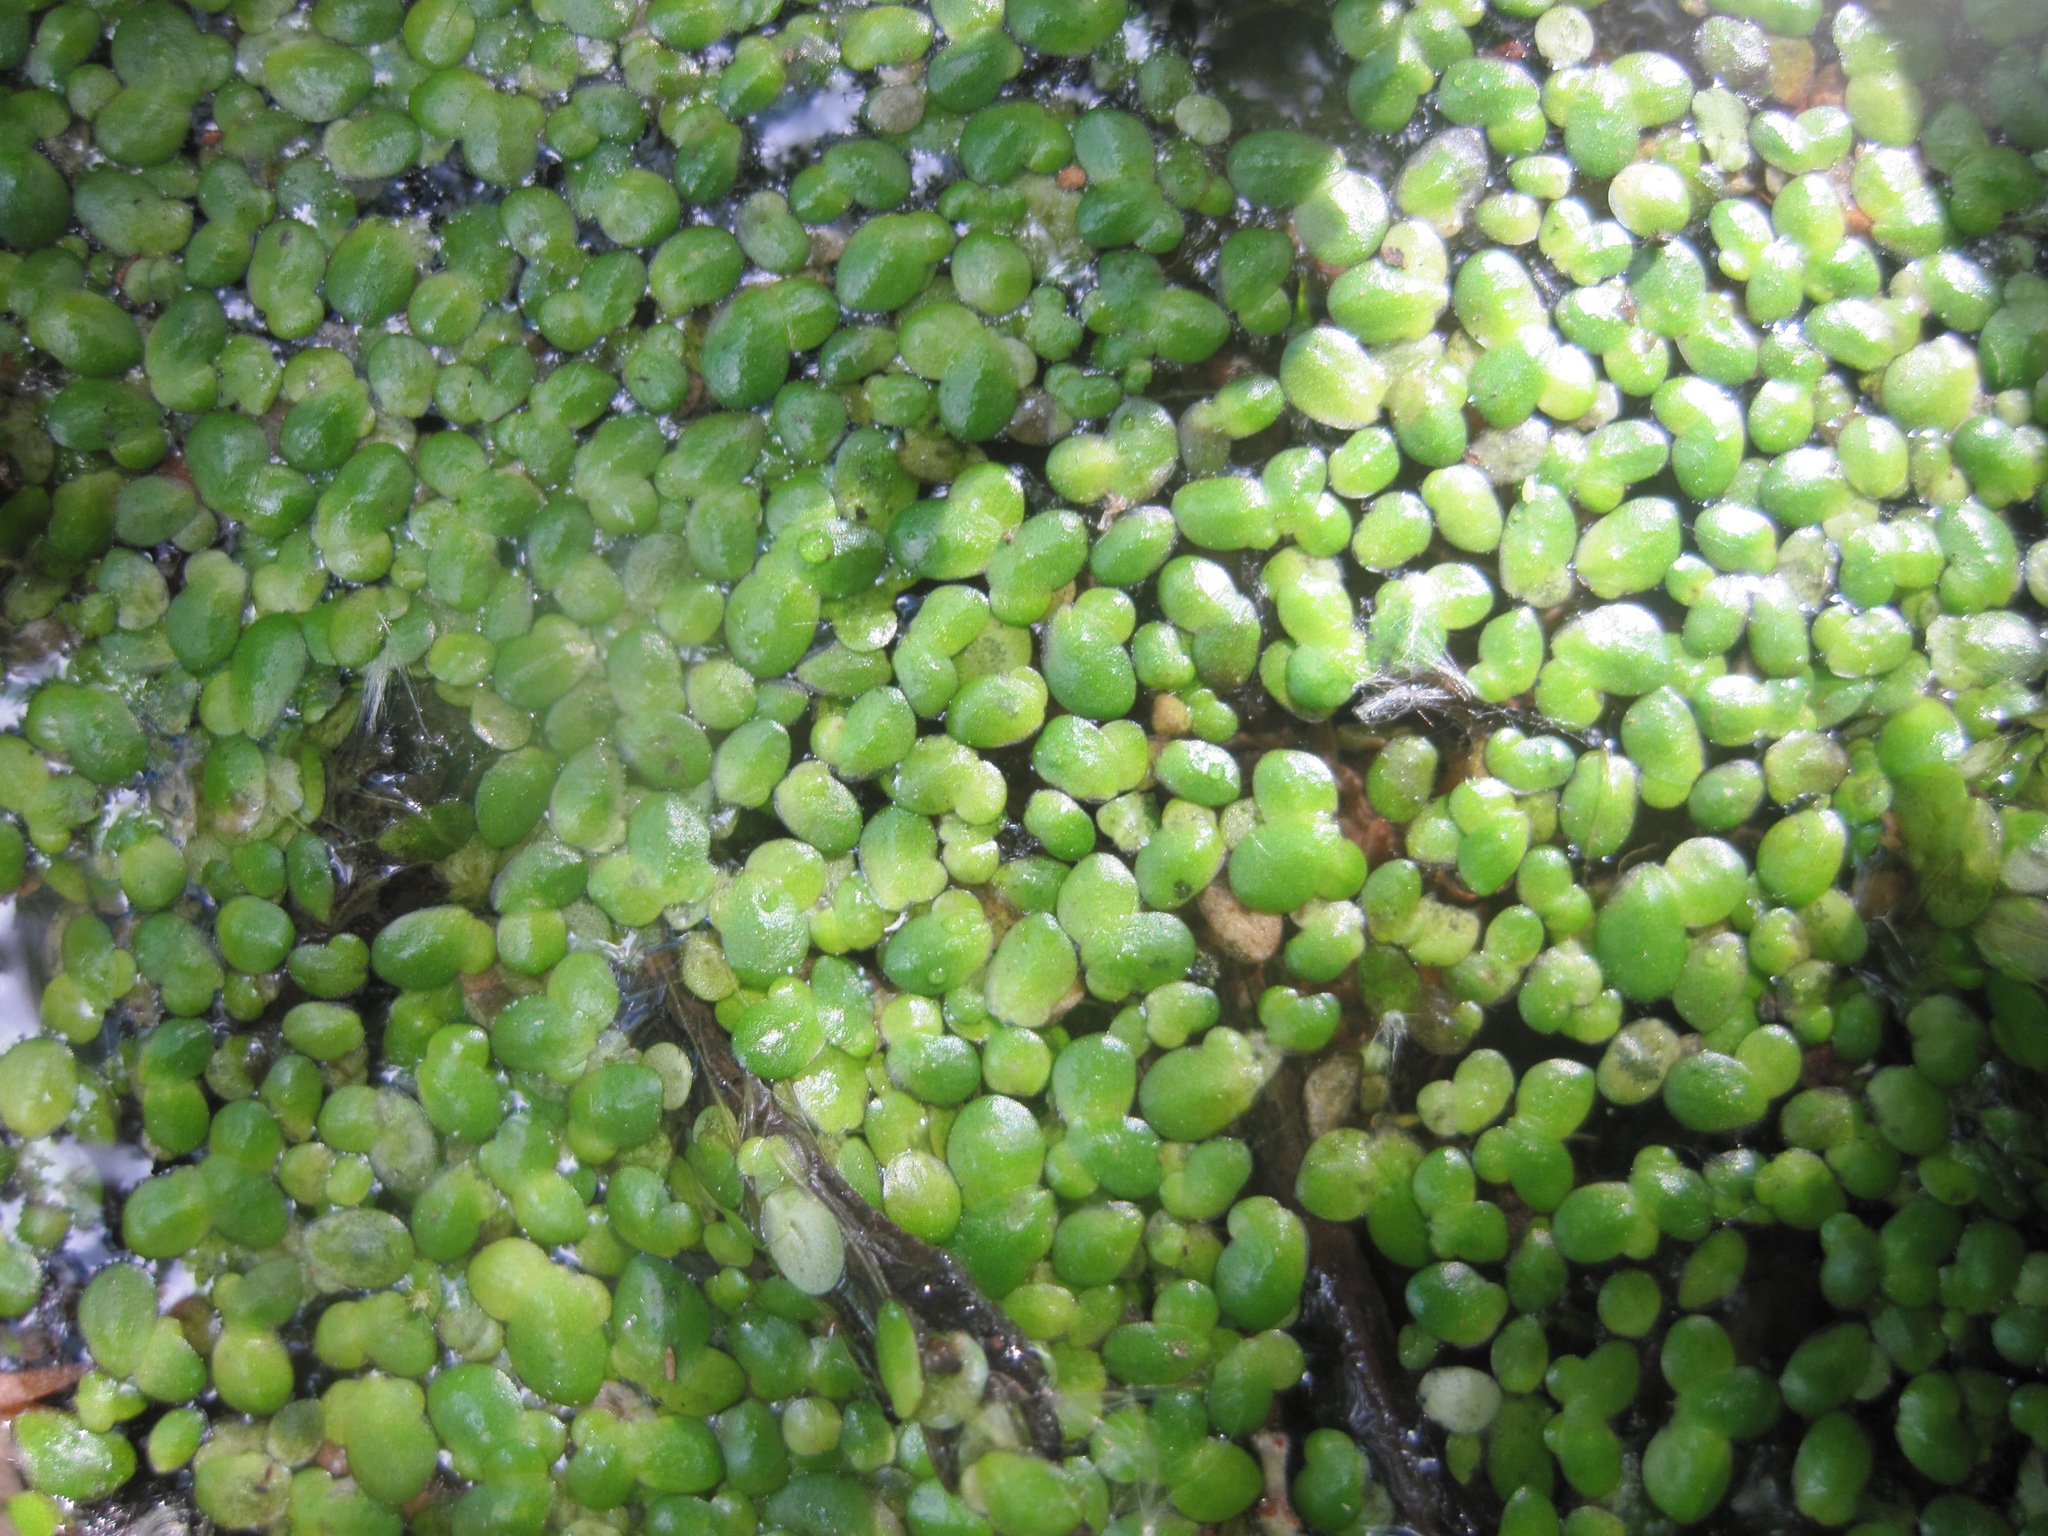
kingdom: Plantae
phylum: Tracheophyta
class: Liliopsida
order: Alismatales
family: Araceae
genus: Lemna
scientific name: Lemna minor
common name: Common duckweed
